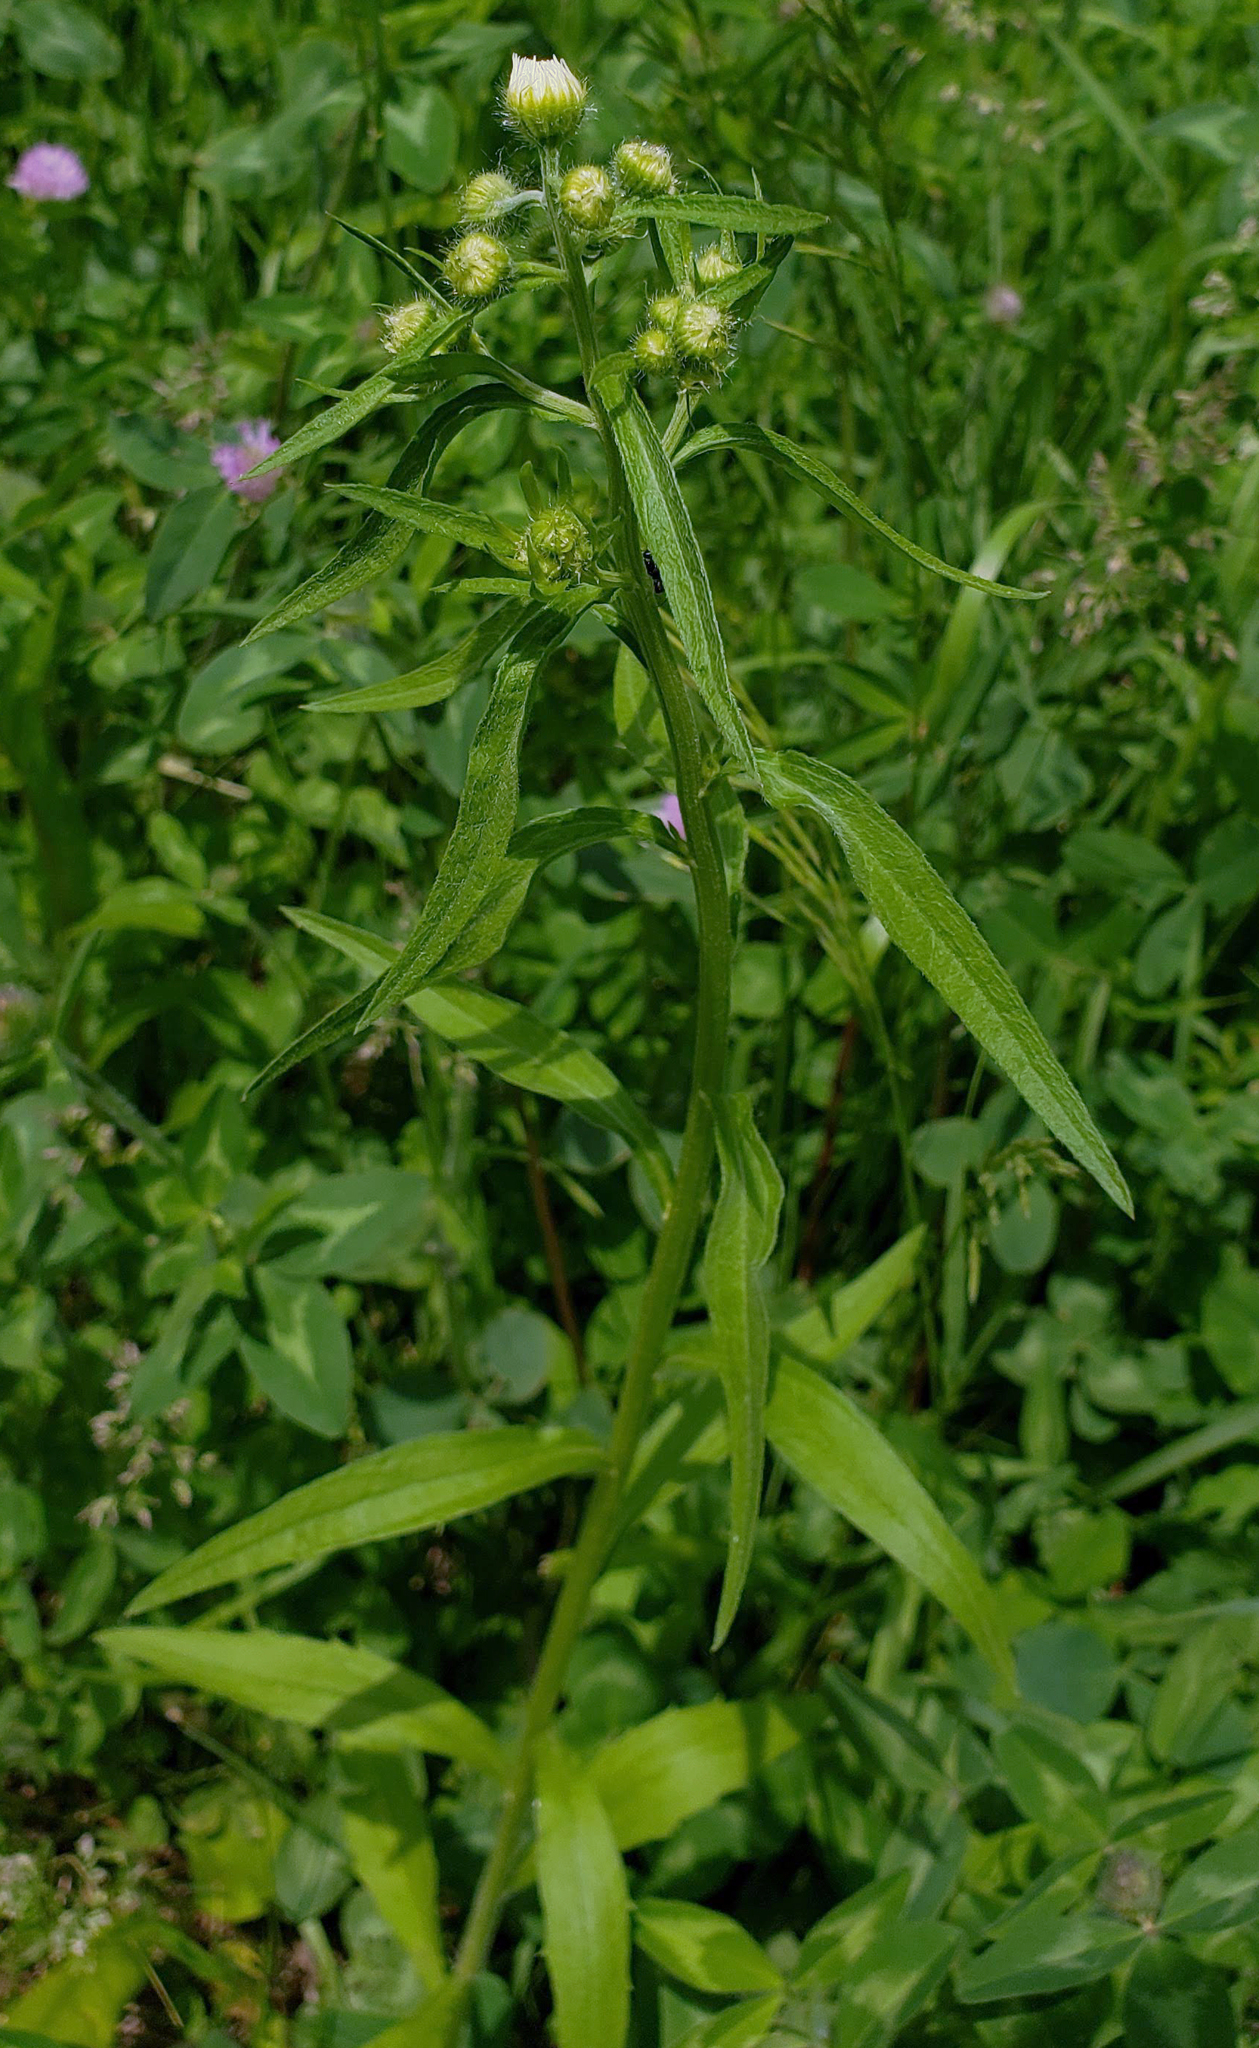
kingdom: Plantae
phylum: Tracheophyta
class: Magnoliopsida
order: Asterales
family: Asteraceae
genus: Erigeron
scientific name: Erigeron annuus
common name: Tall fleabane
